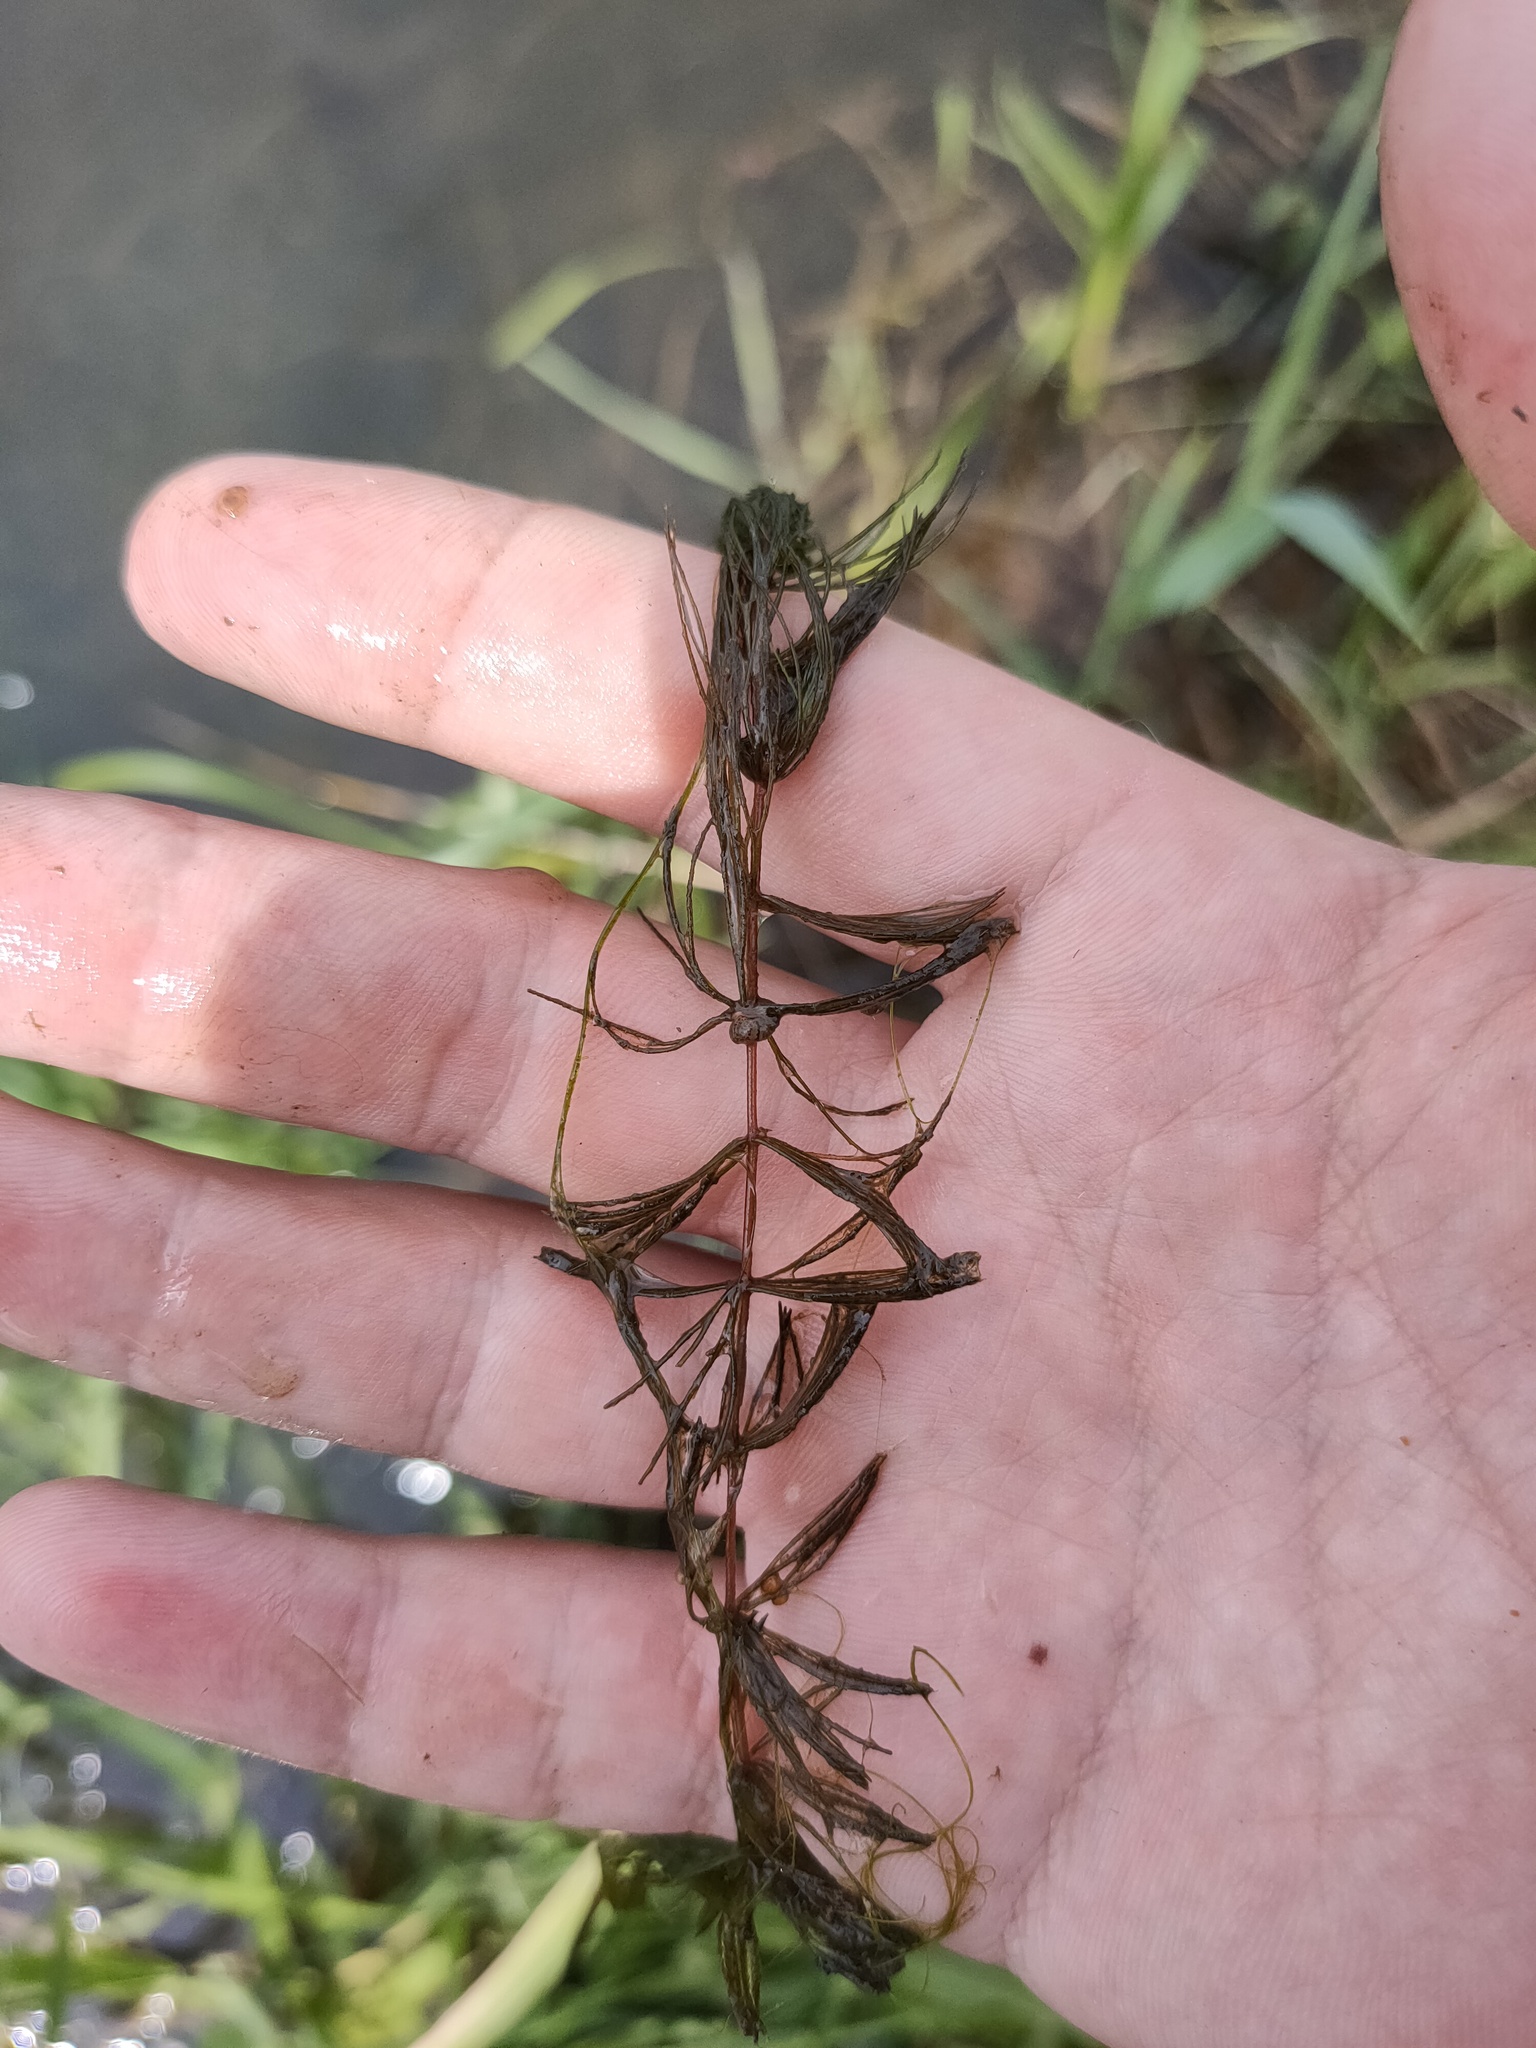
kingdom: Plantae
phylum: Tracheophyta
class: Magnoliopsida
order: Ceratophyllales
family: Ceratophyllaceae
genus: Ceratophyllum
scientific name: Ceratophyllum demersum
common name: Rigid hornwort
